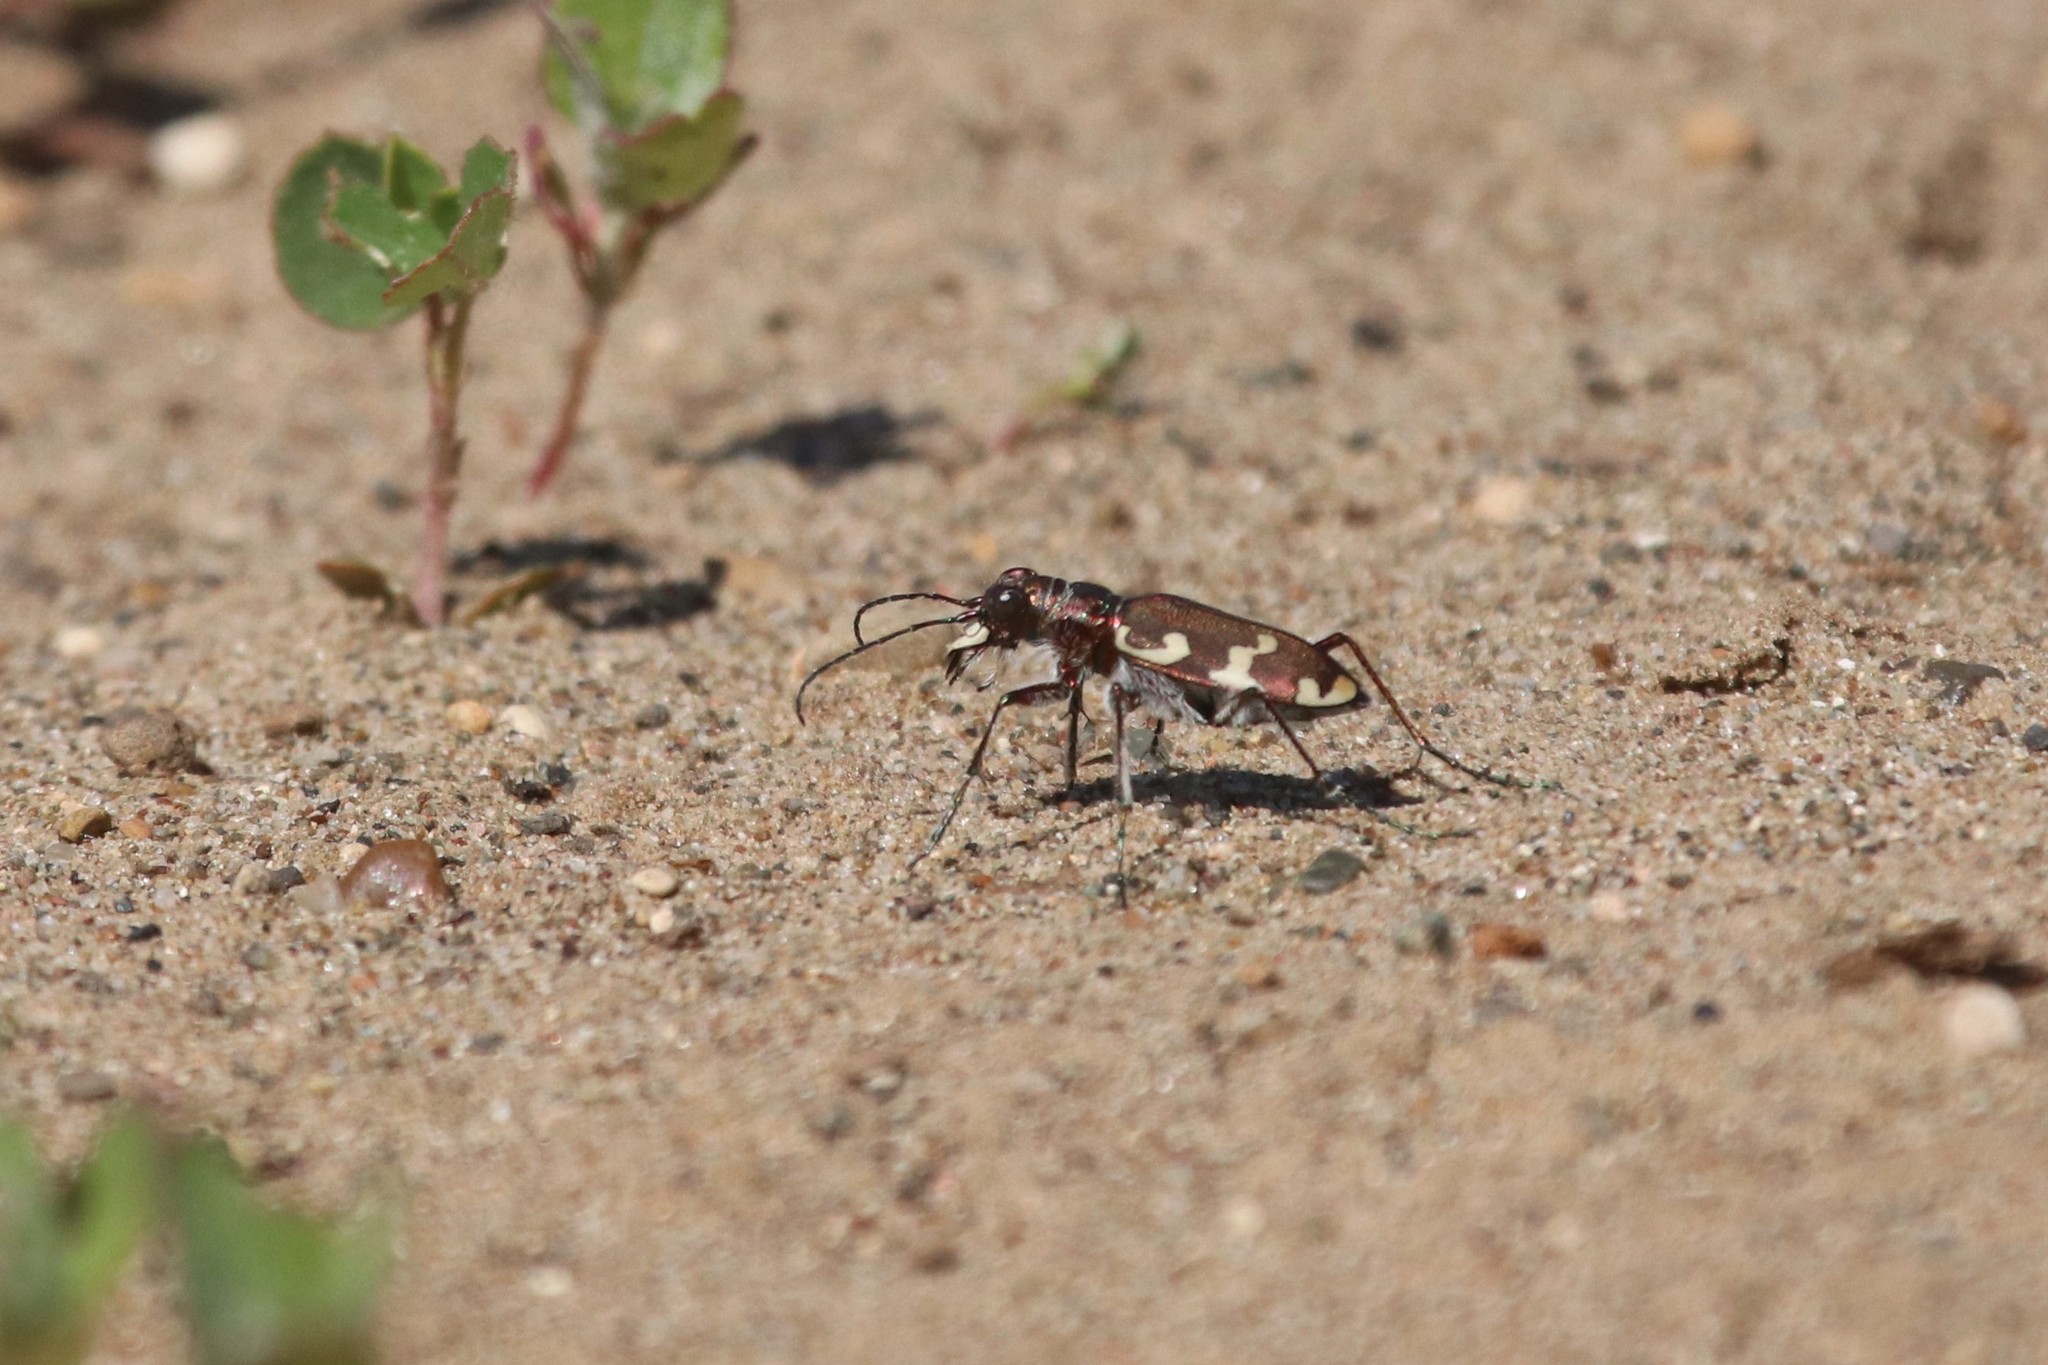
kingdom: Animalia
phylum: Arthropoda
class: Insecta
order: Coleoptera
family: Carabidae
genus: Cicindela
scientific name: Cicindela hybrida
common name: Northern dune tiger beetle
